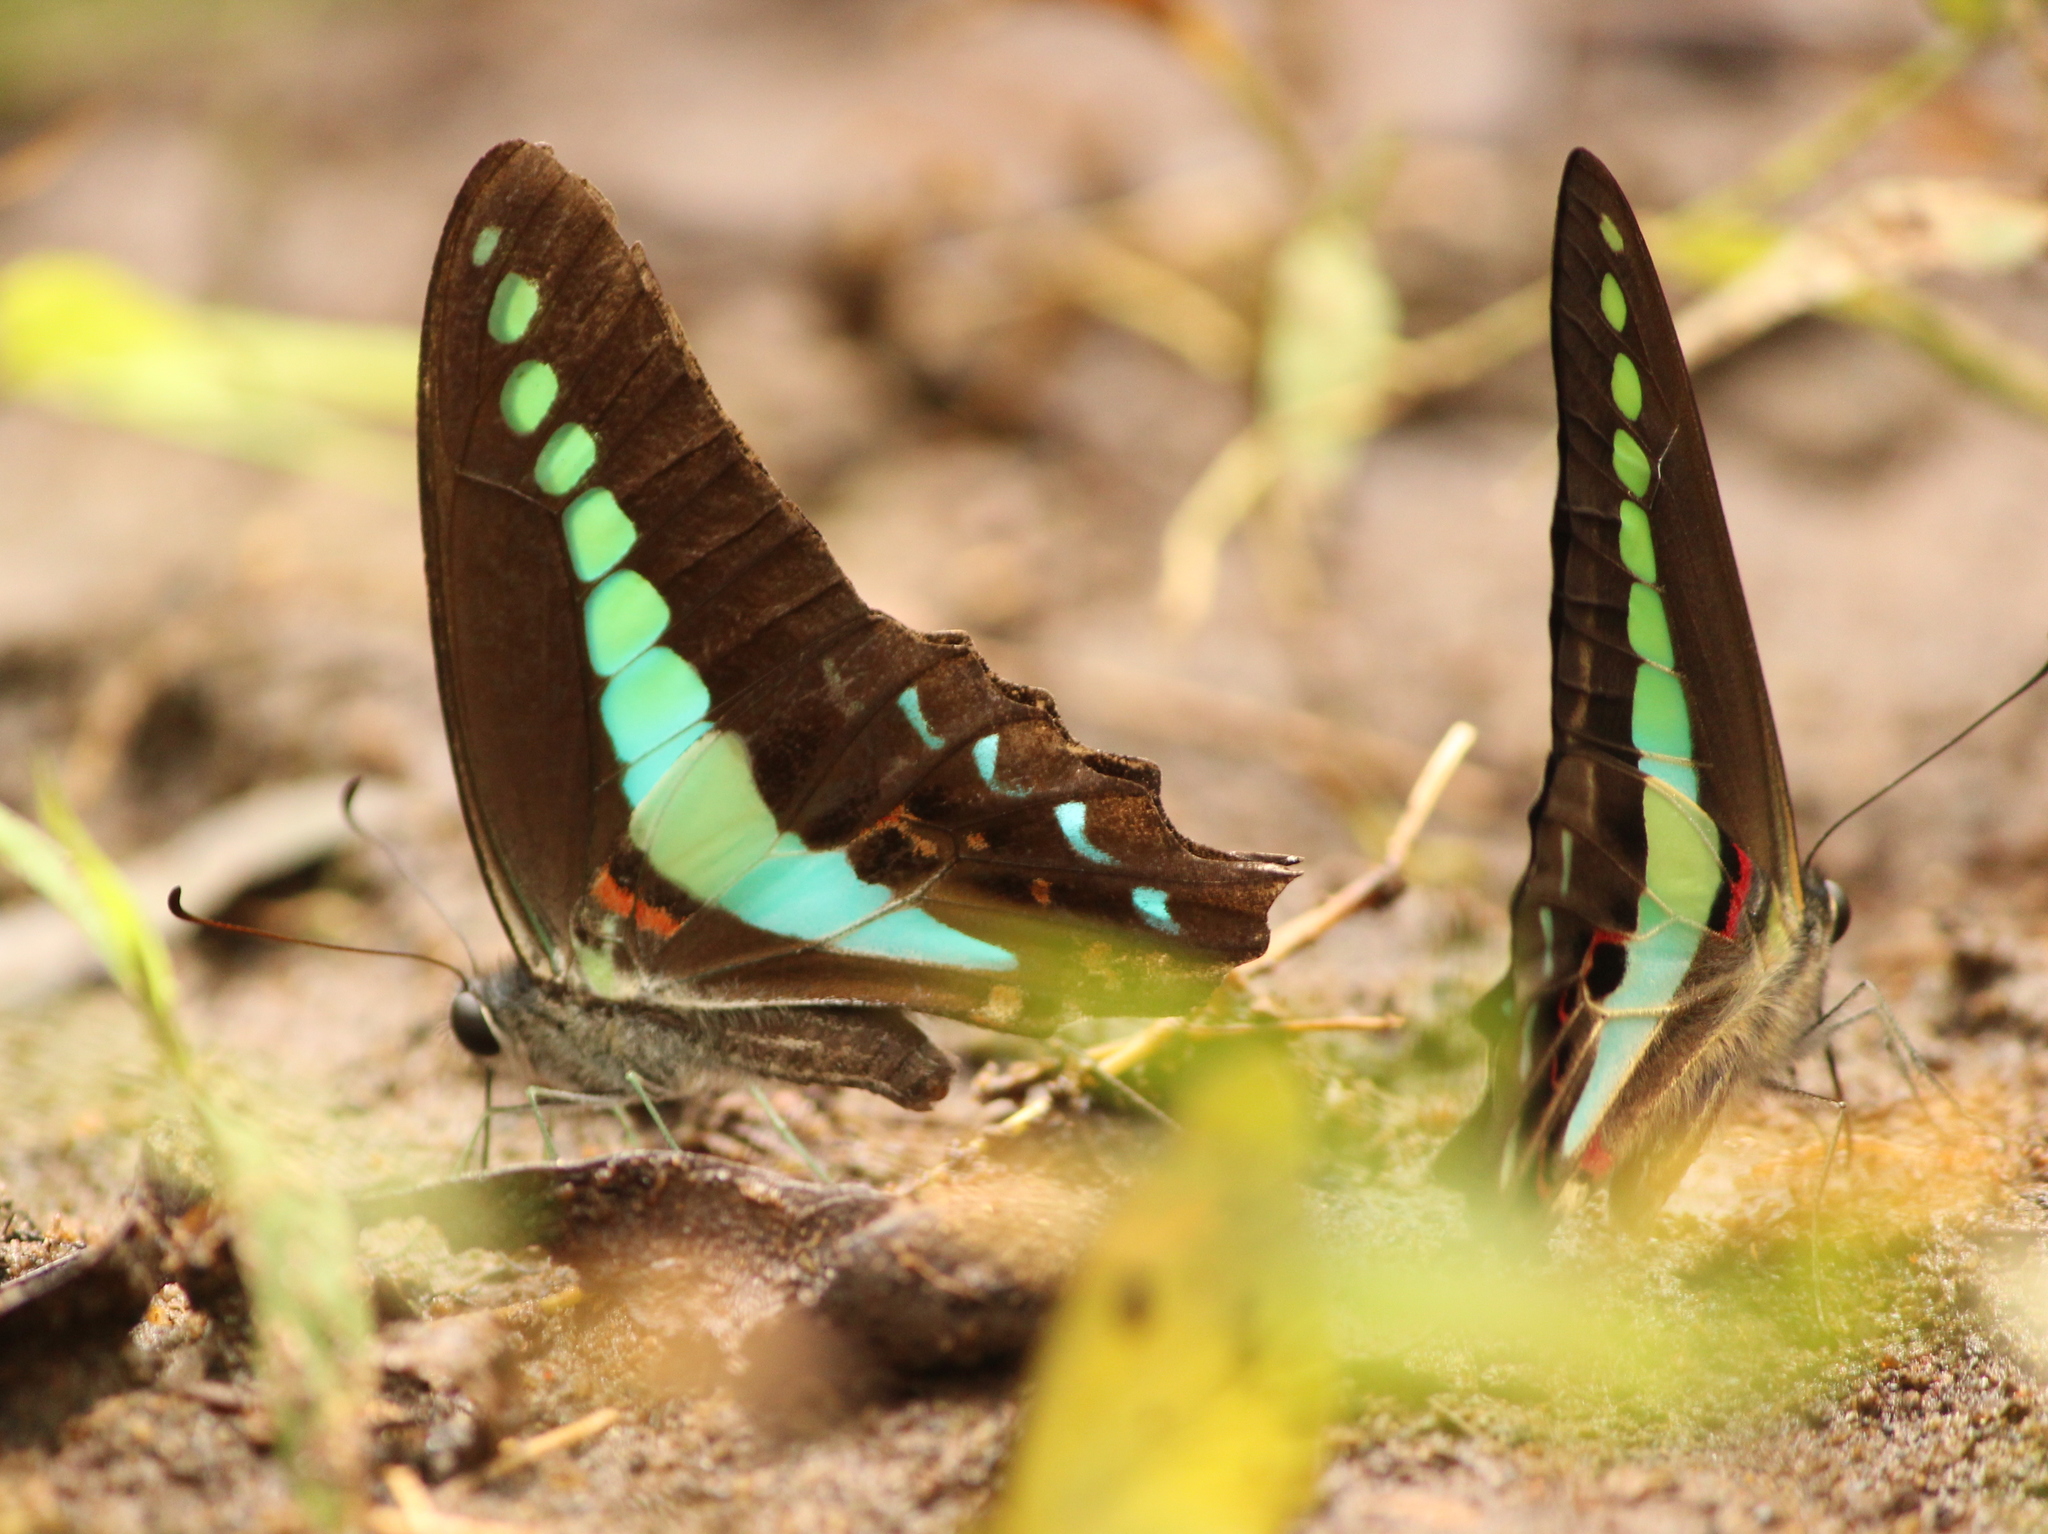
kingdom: Animalia
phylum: Arthropoda
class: Insecta
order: Lepidoptera
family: Papilionidae
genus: Graphium
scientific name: Graphium
